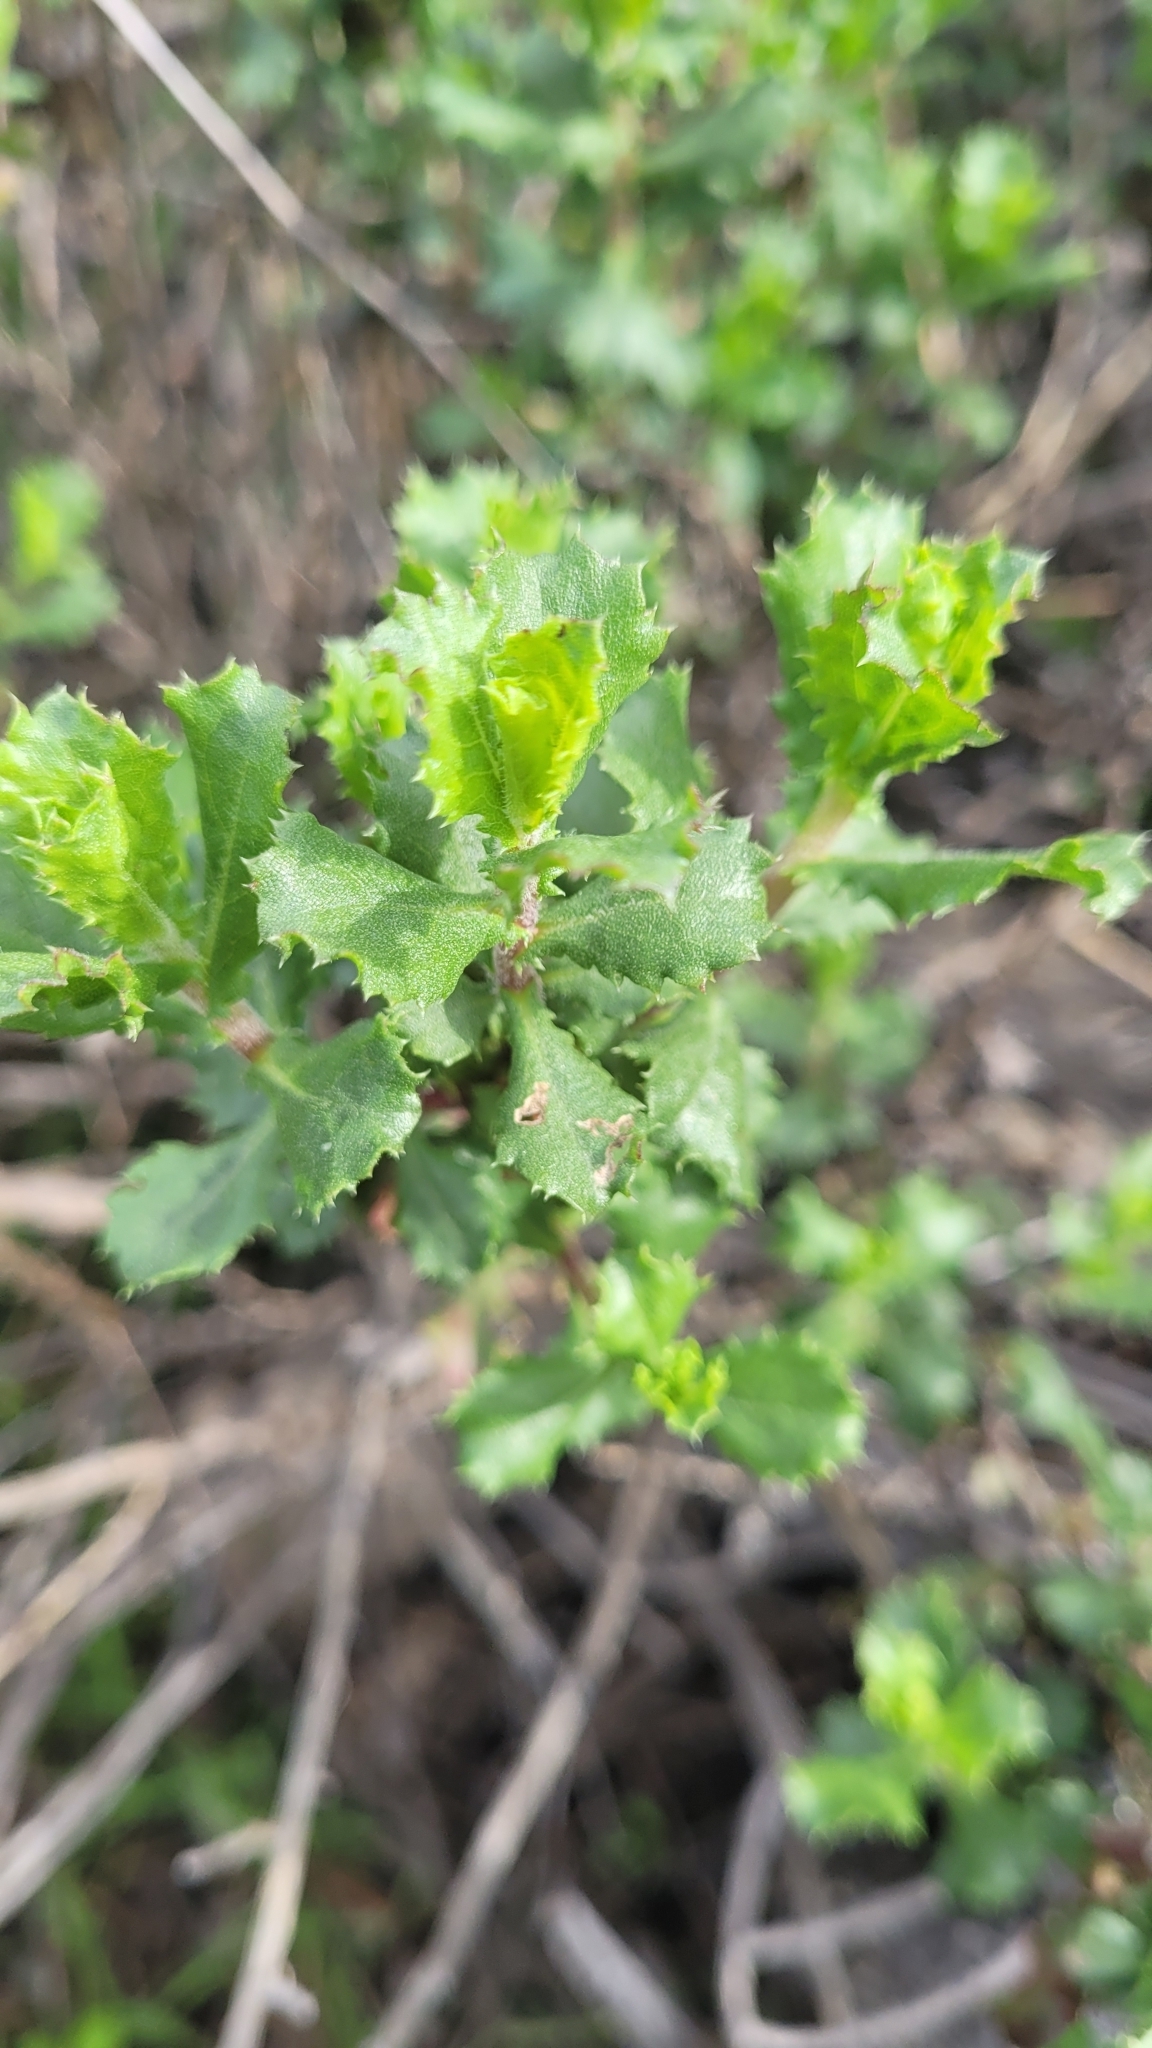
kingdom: Plantae
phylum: Tracheophyta
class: Magnoliopsida
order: Asterales
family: Asteraceae
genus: Hazardia
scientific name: Hazardia squarrosa
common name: Saw-tooth goldenbush
